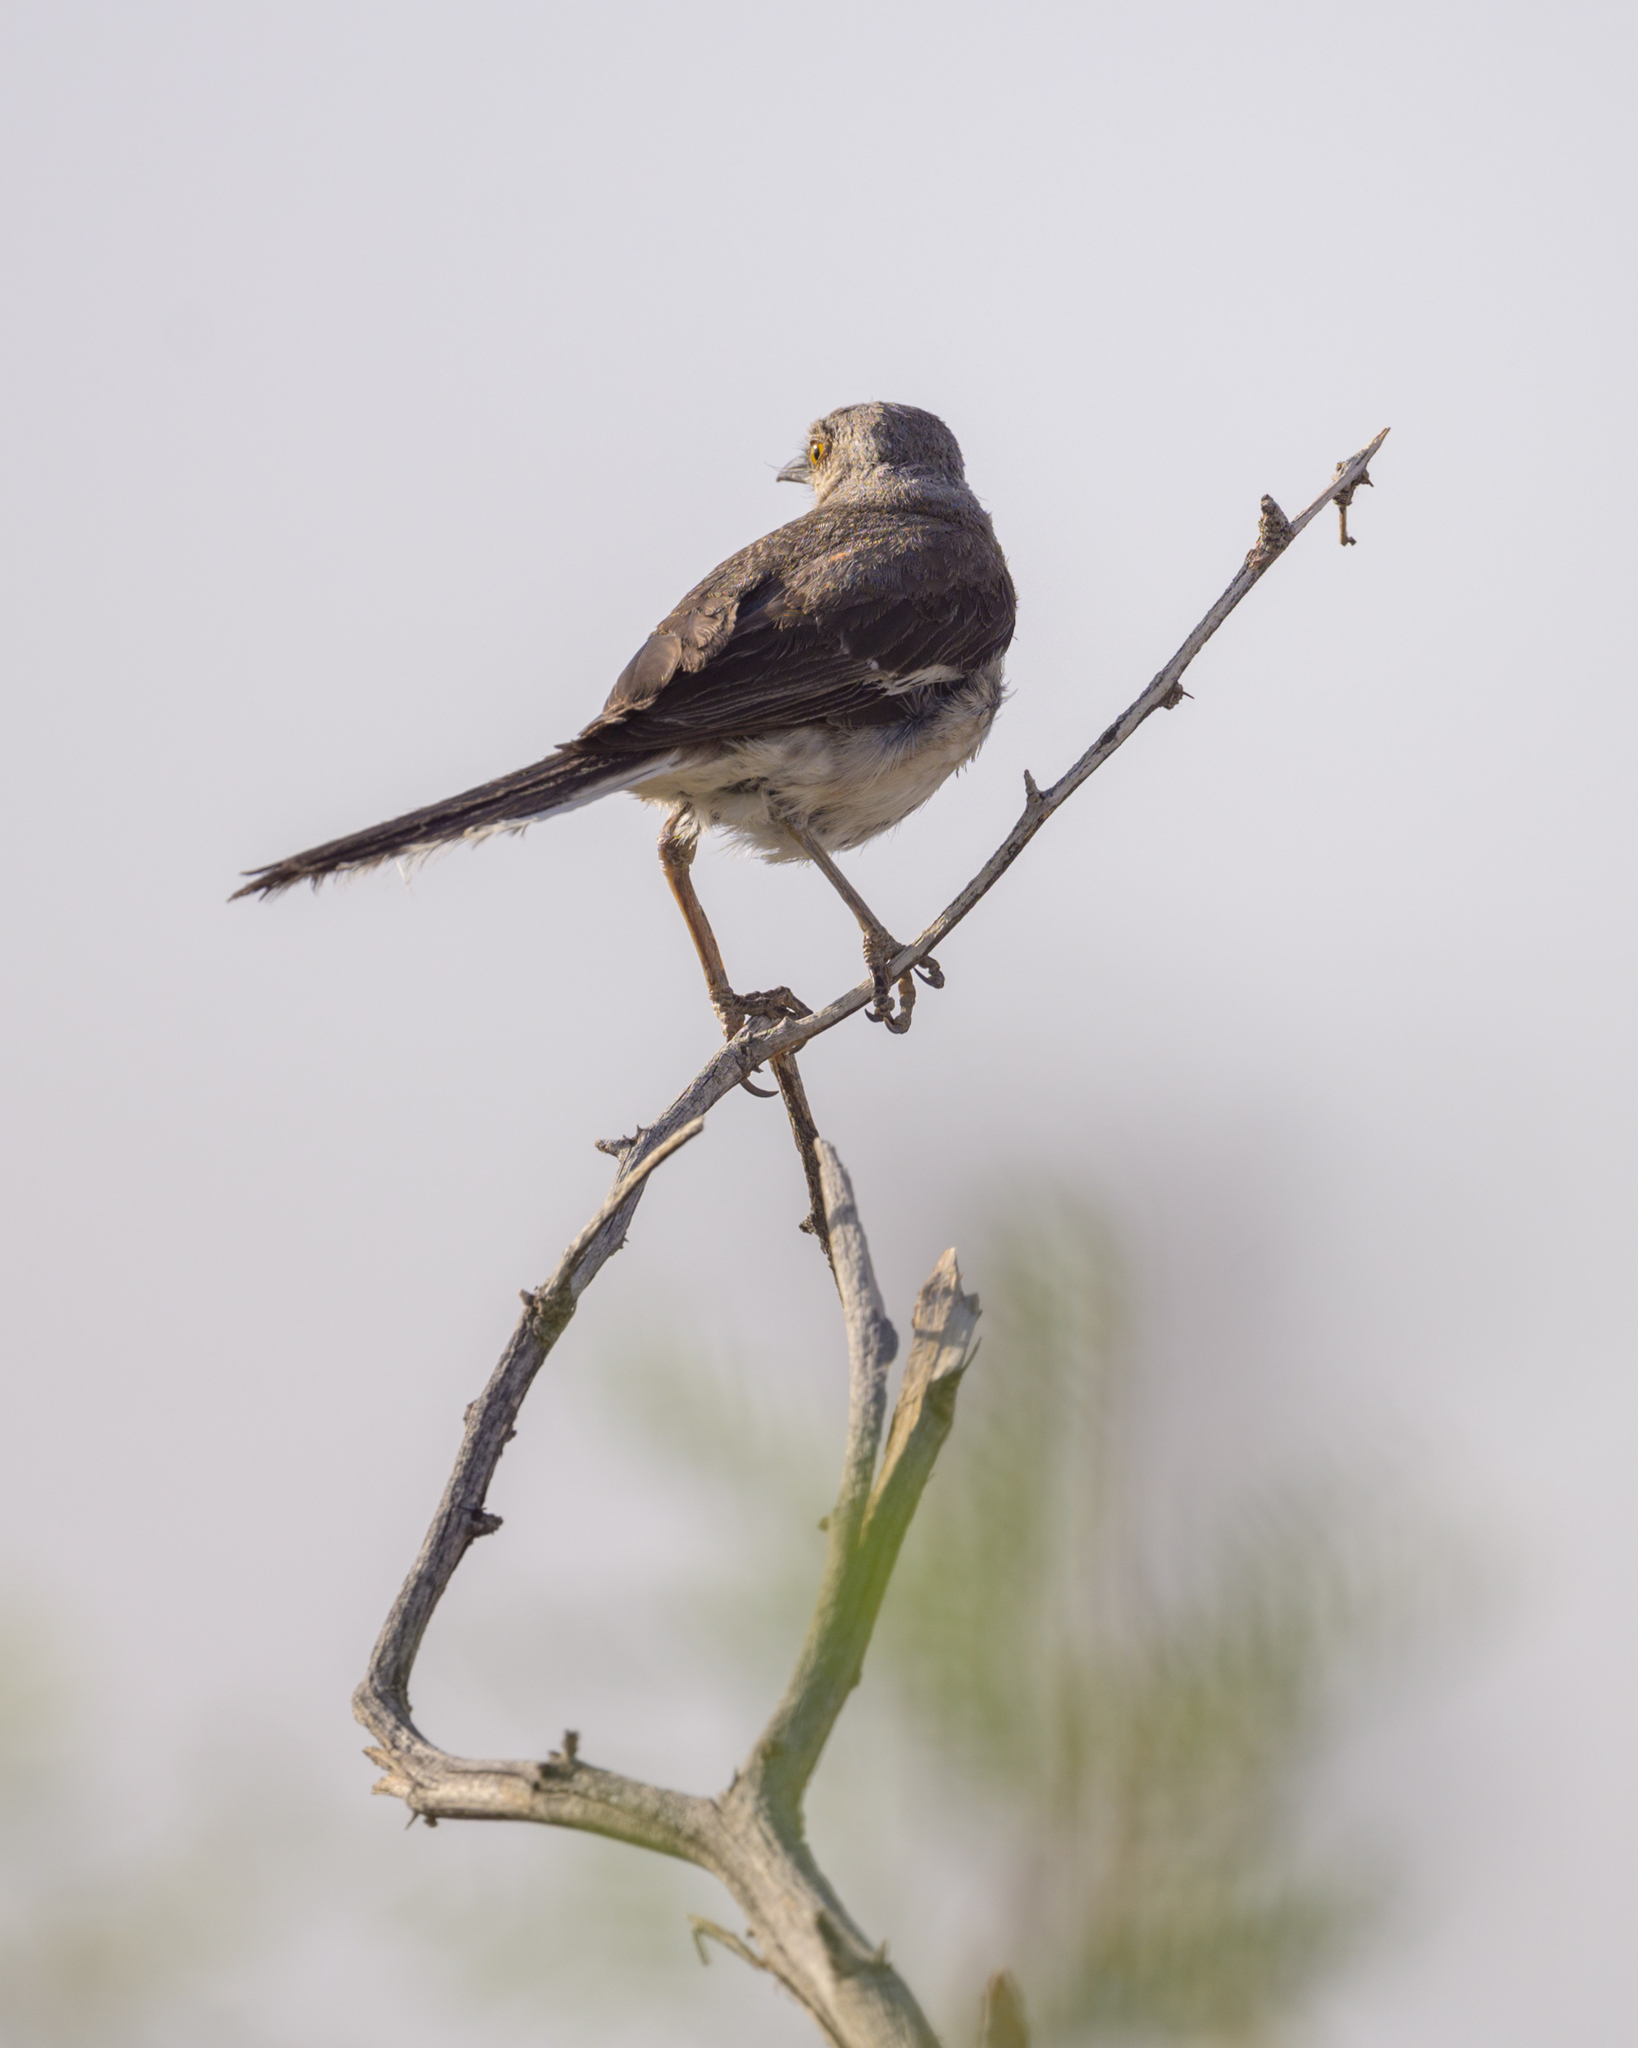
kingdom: Animalia
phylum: Chordata
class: Aves
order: Passeriformes
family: Mimidae
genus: Mimus
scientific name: Mimus polyglottos
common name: Northern mockingbird
